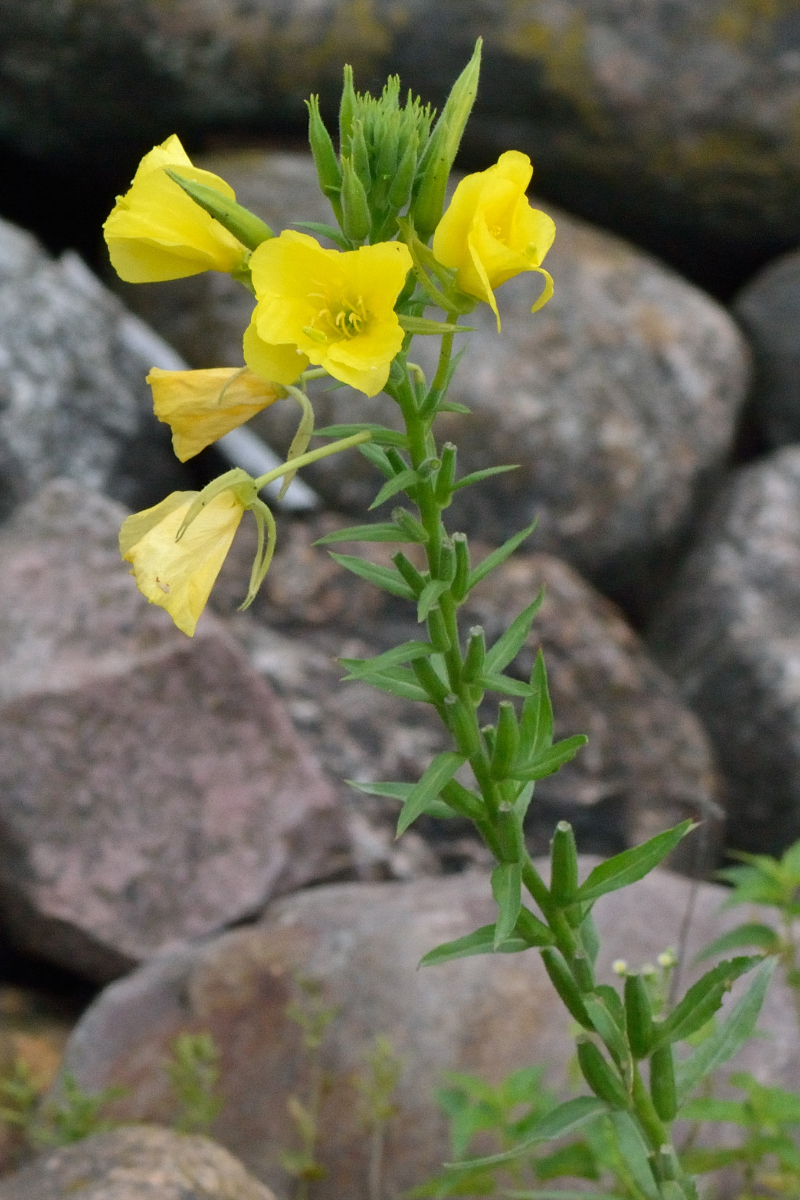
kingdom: Plantae
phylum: Tracheophyta
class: Magnoliopsida
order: Myrtales
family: Onagraceae
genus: Oenothera
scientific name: Oenothera biennis
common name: Common evening-primrose
